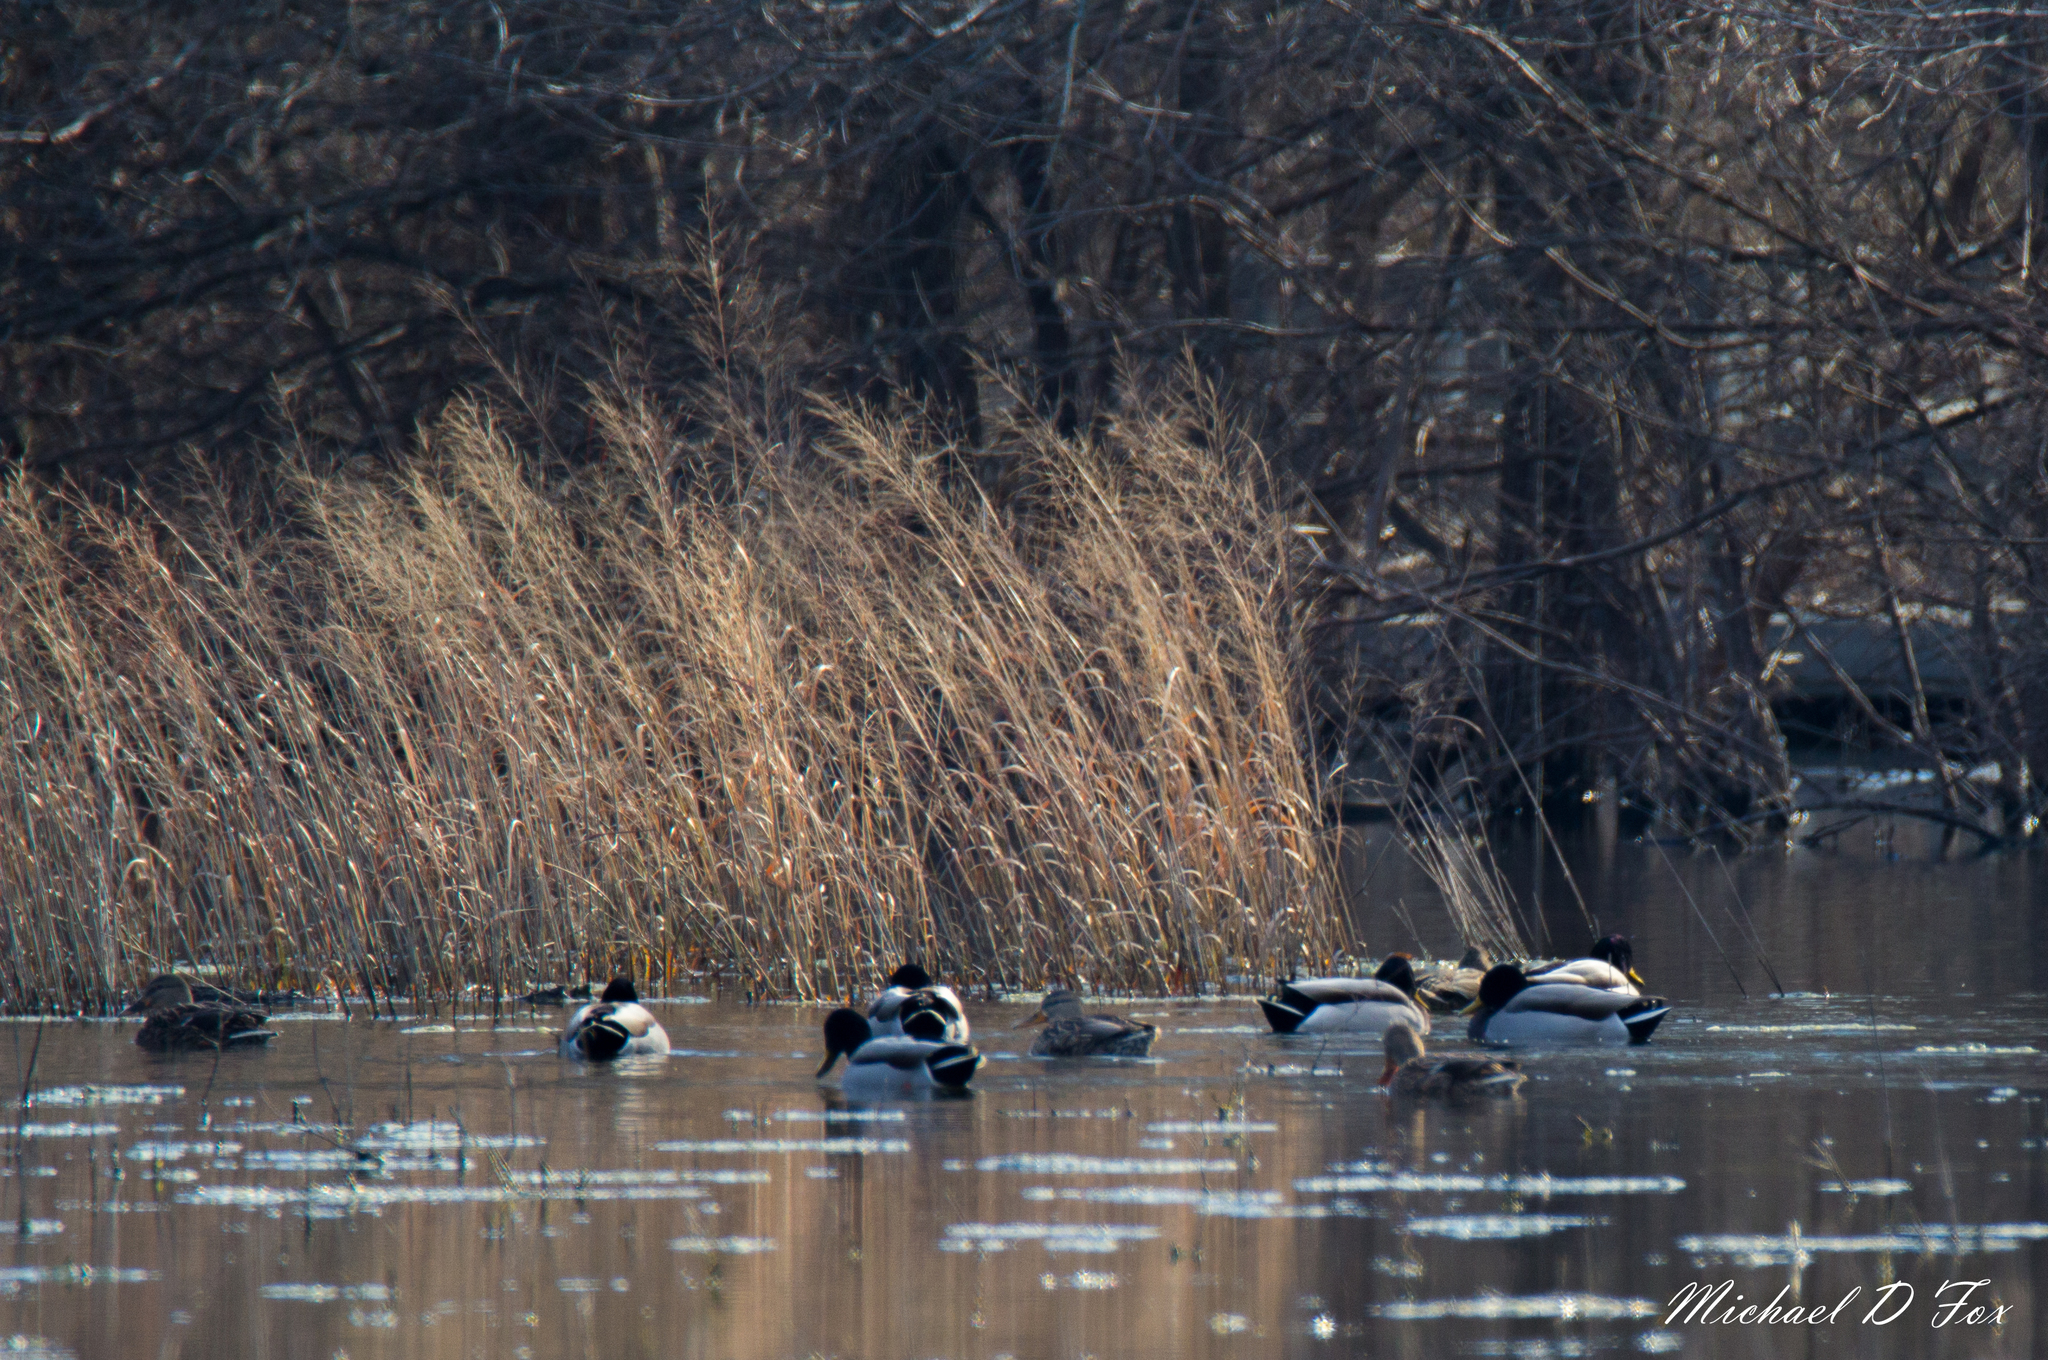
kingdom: Animalia
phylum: Chordata
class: Aves
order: Anseriformes
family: Anatidae
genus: Anas
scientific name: Anas platyrhynchos
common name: Mallard
